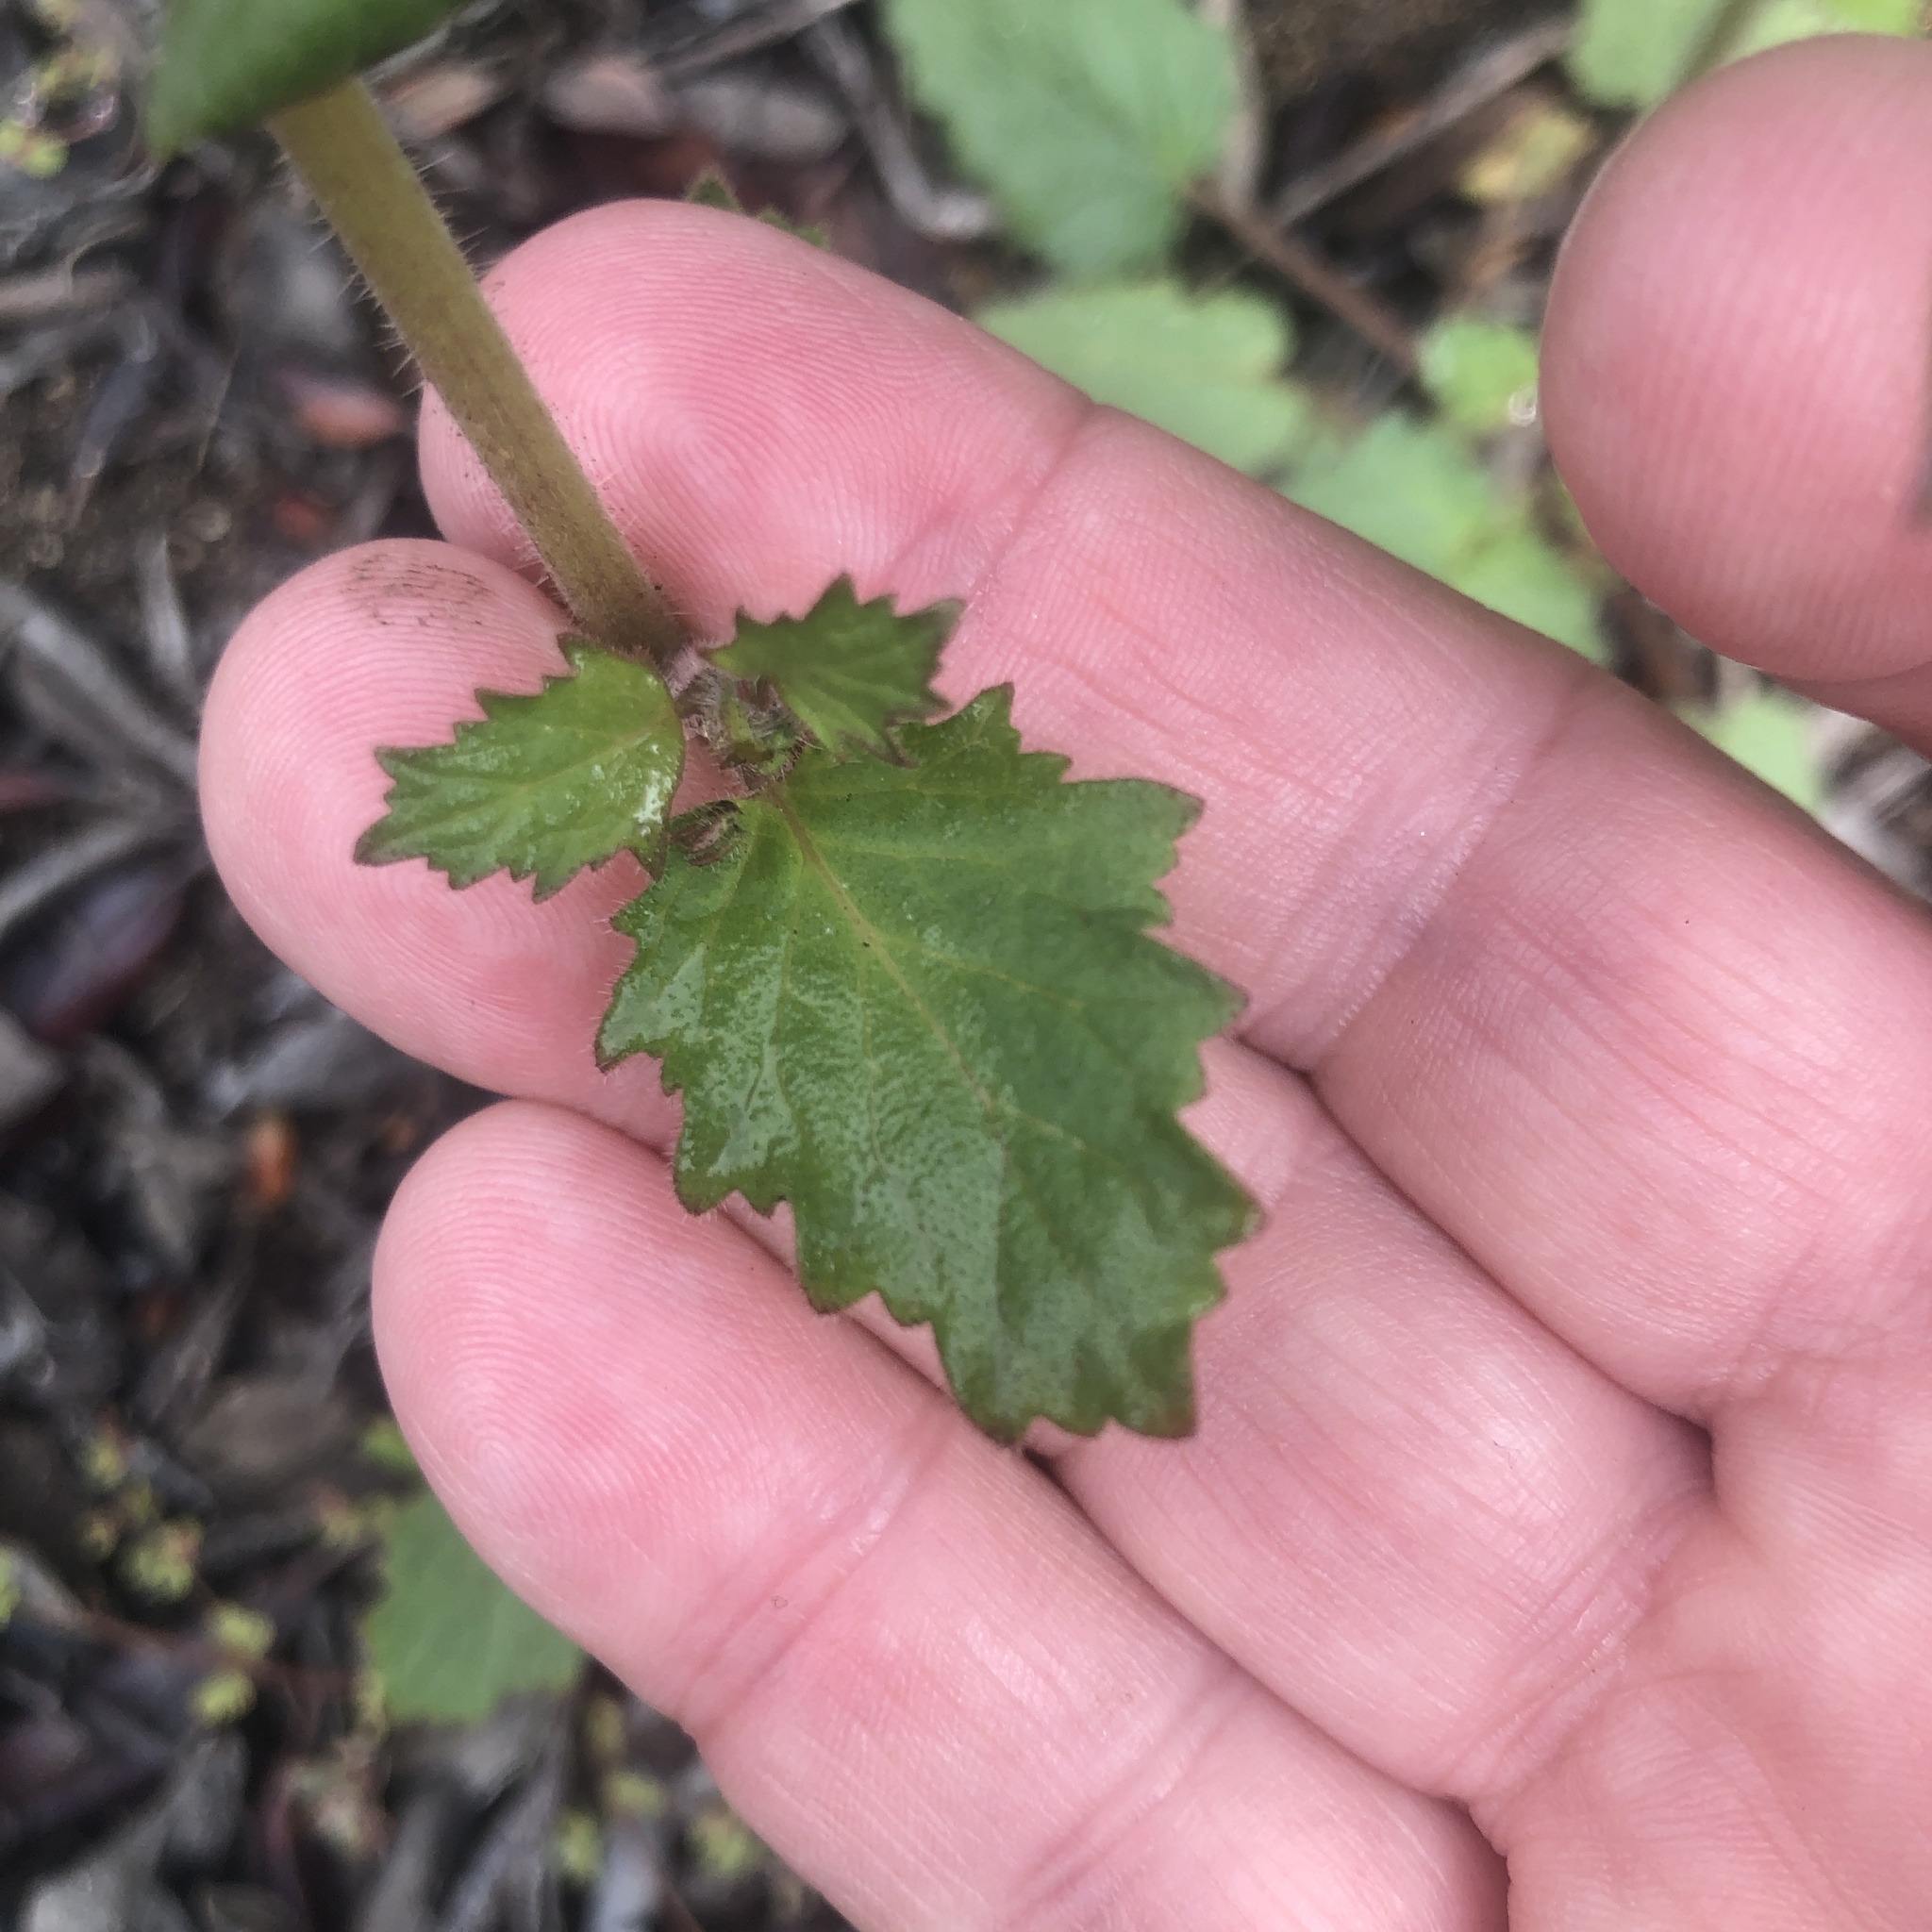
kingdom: Plantae
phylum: Tracheophyta
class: Magnoliopsida
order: Boraginales
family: Hydrophyllaceae
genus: Phacelia
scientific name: Phacelia parryi
